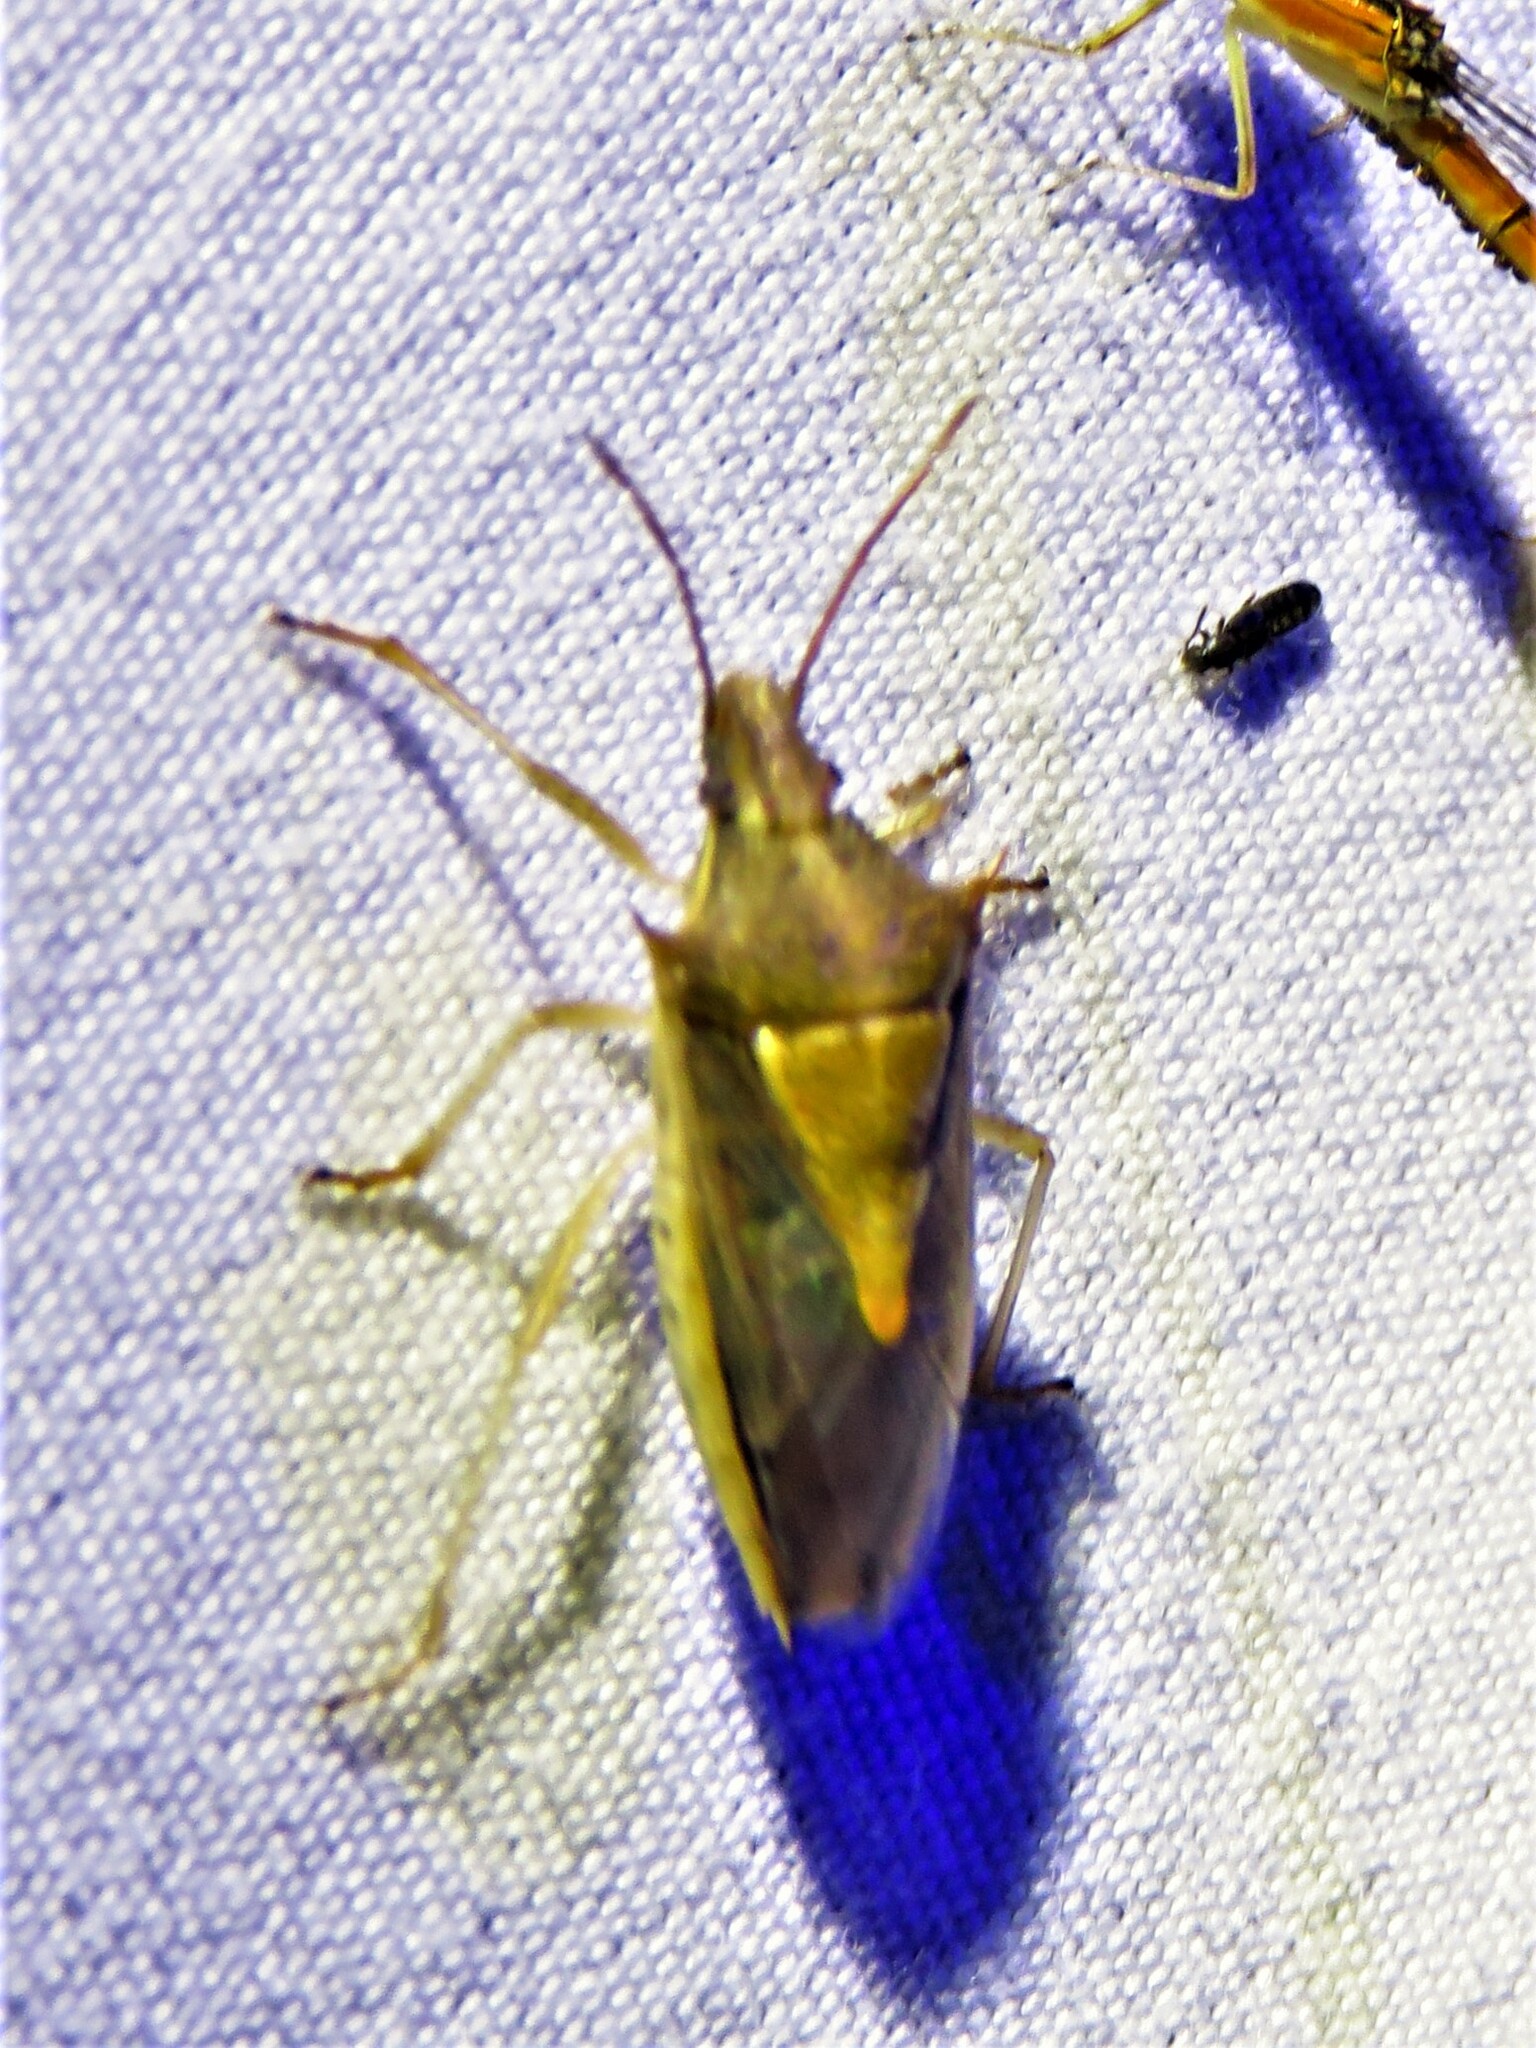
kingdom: Animalia
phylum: Arthropoda
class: Insecta
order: Hemiptera
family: Pentatomidae
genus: Oebalus
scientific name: Oebalus pugnax
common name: Rice stink bug
